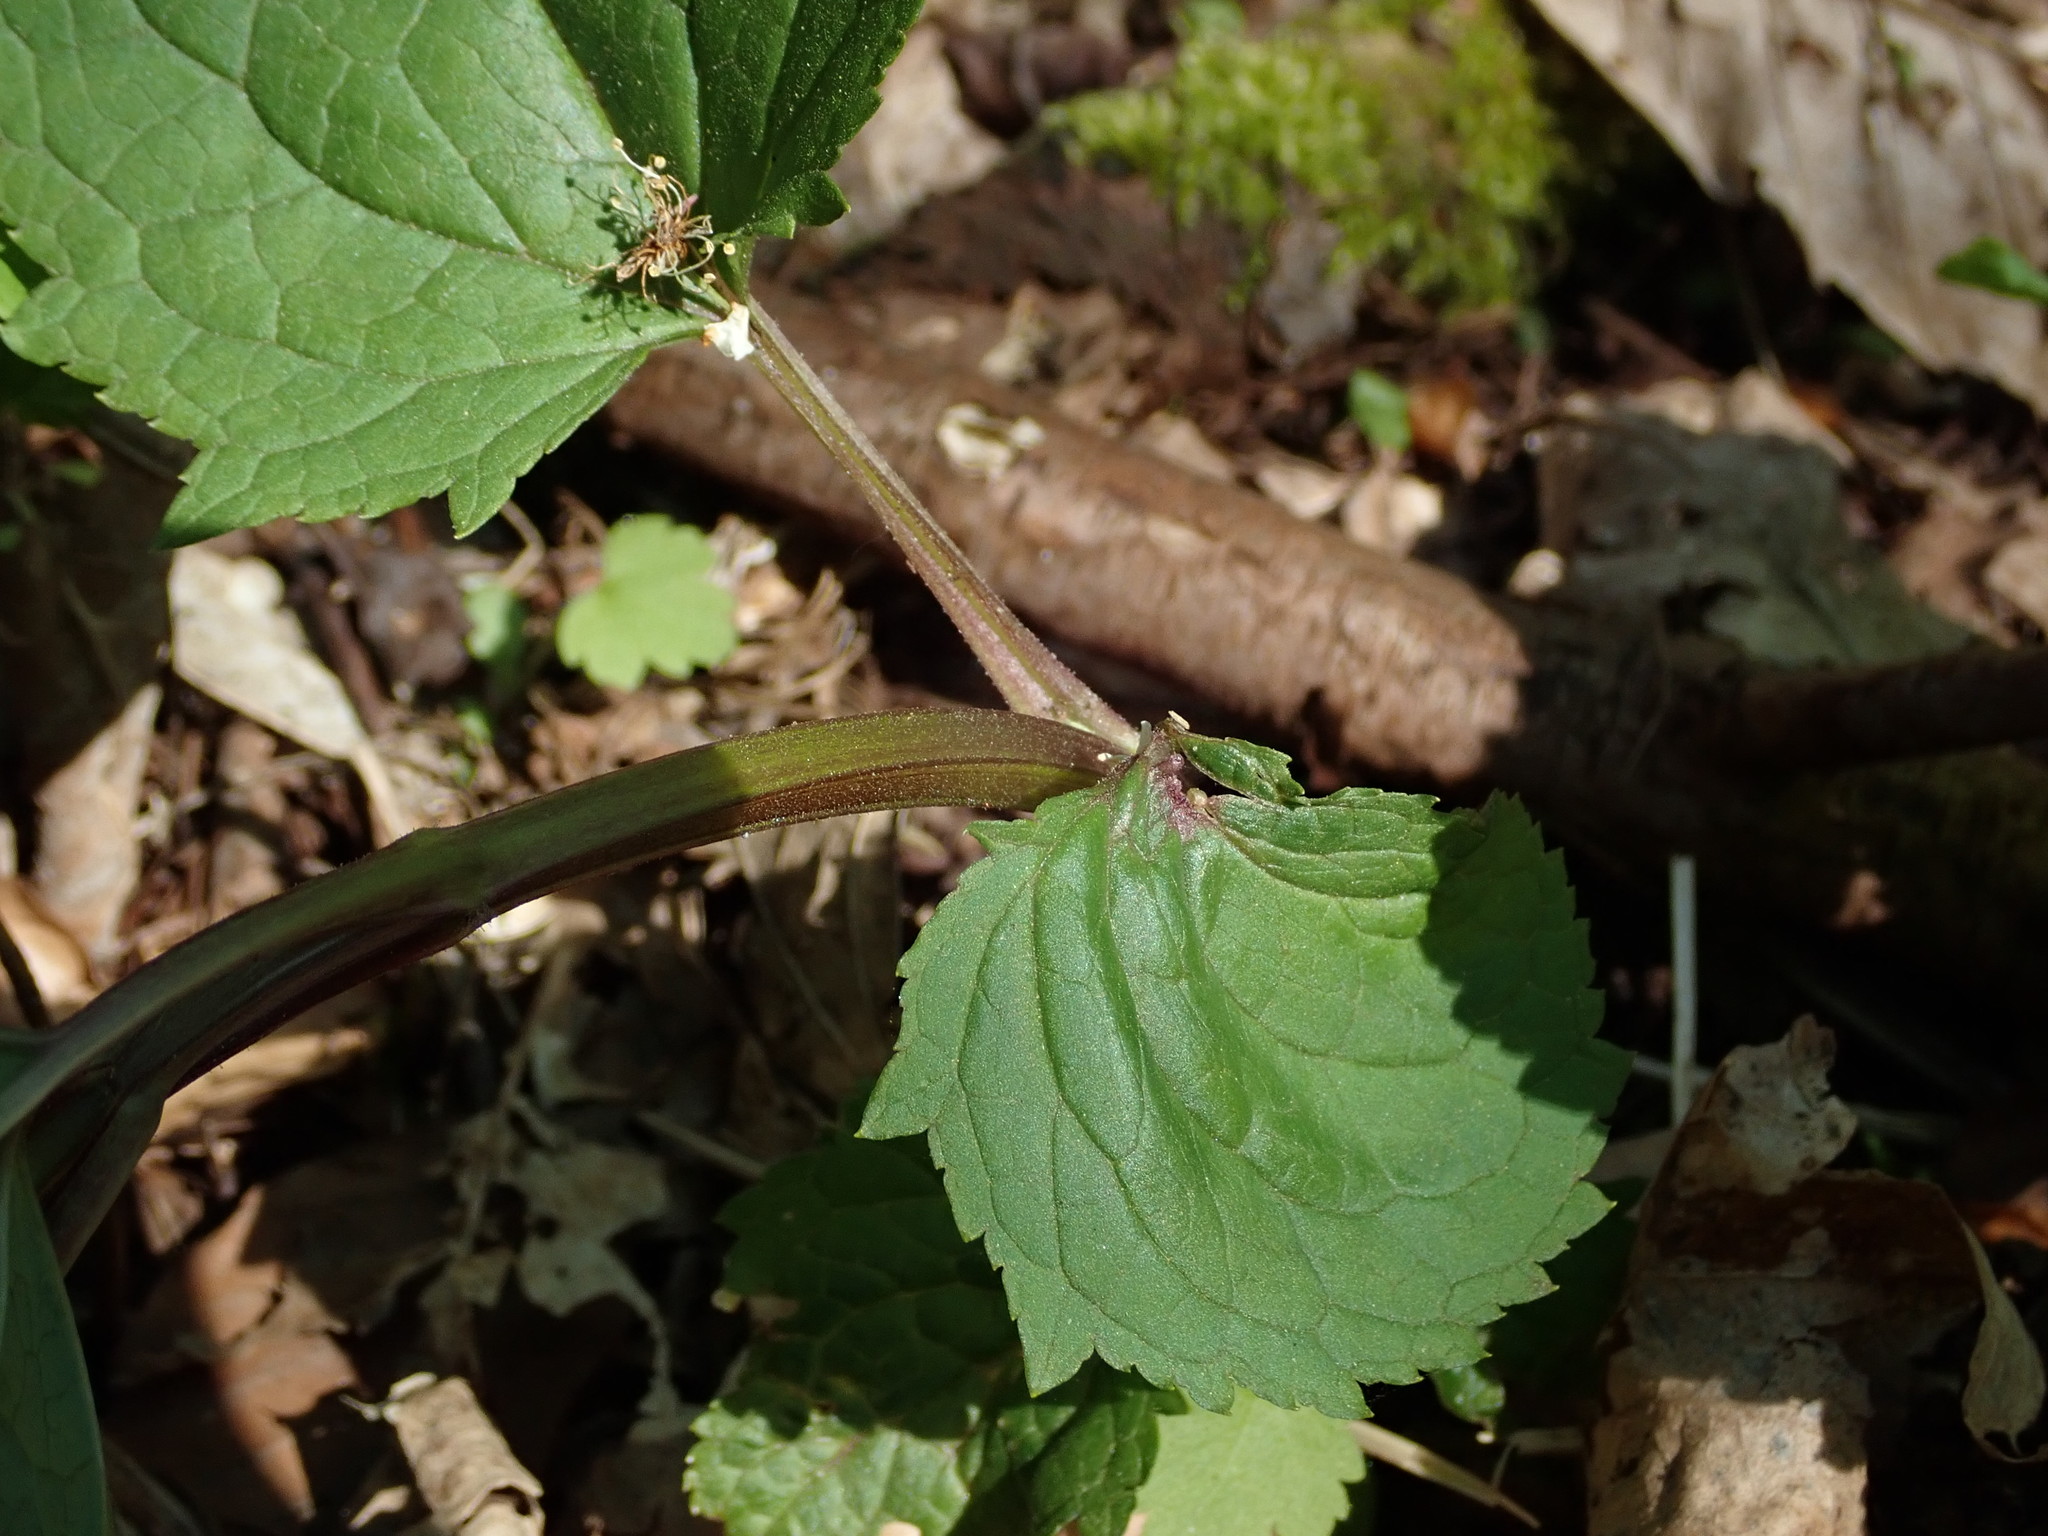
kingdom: Plantae
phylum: Tracheophyta
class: Magnoliopsida
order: Lamiales
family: Scrophulariaceae
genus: Scrophularia
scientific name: Scrophularia nodosa
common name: Common figwort
